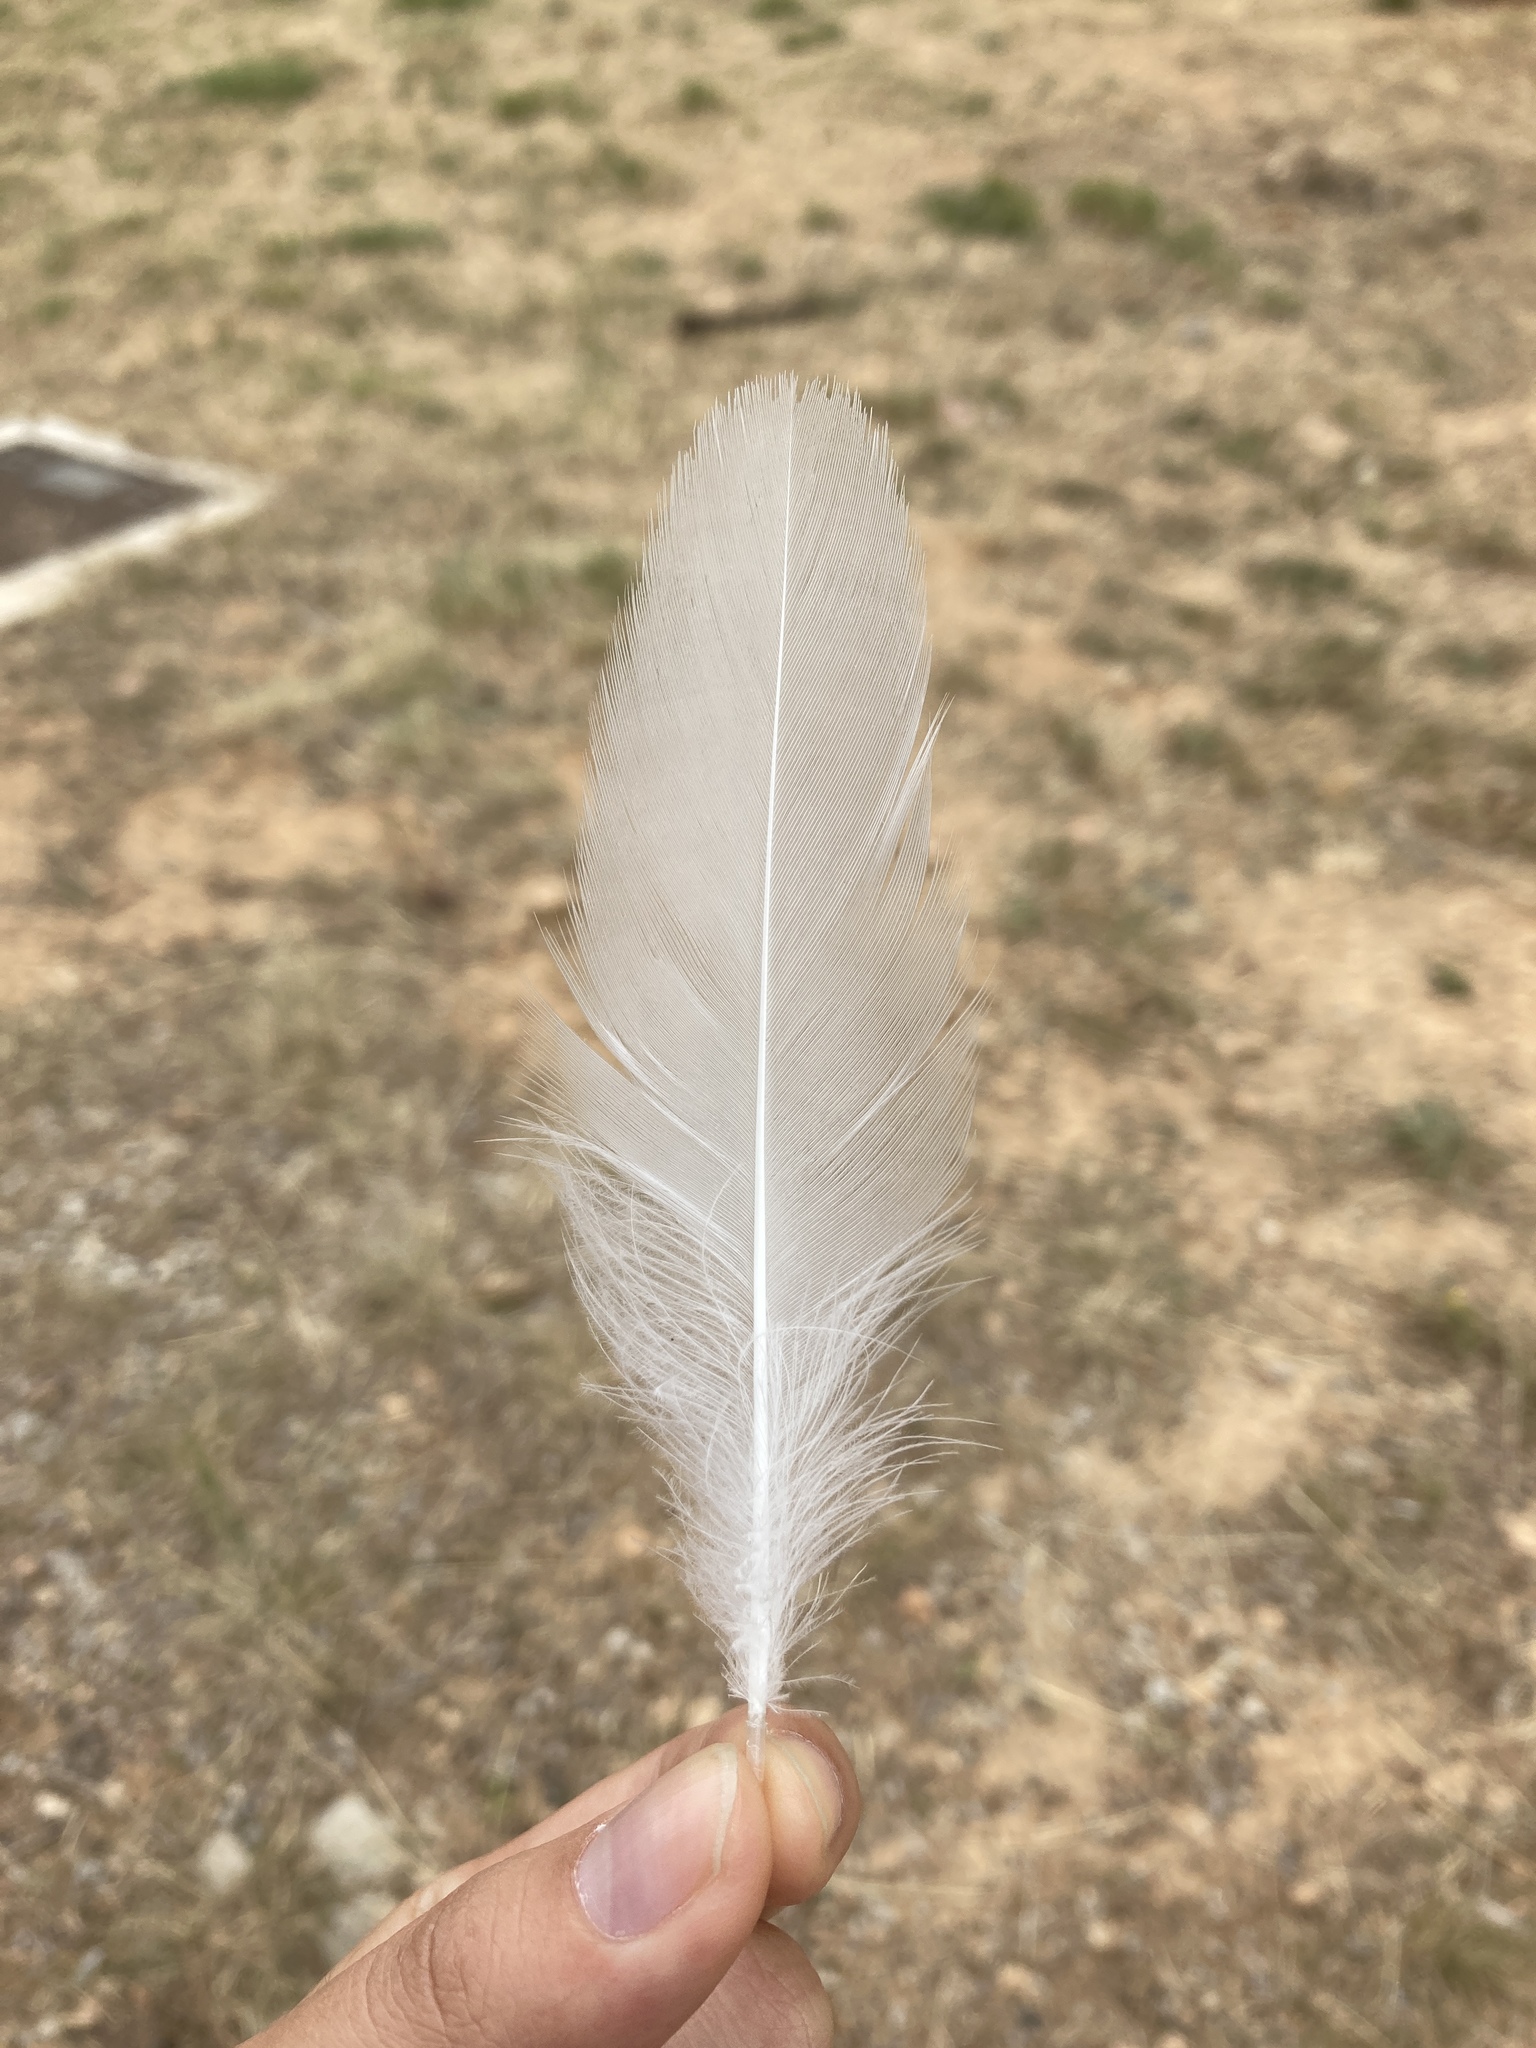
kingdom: Animalia
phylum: Chordata
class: Aves
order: Gruiformes
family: Rallidae
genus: Gallinula
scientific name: Gallinula chloropus
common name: Common moorhen
